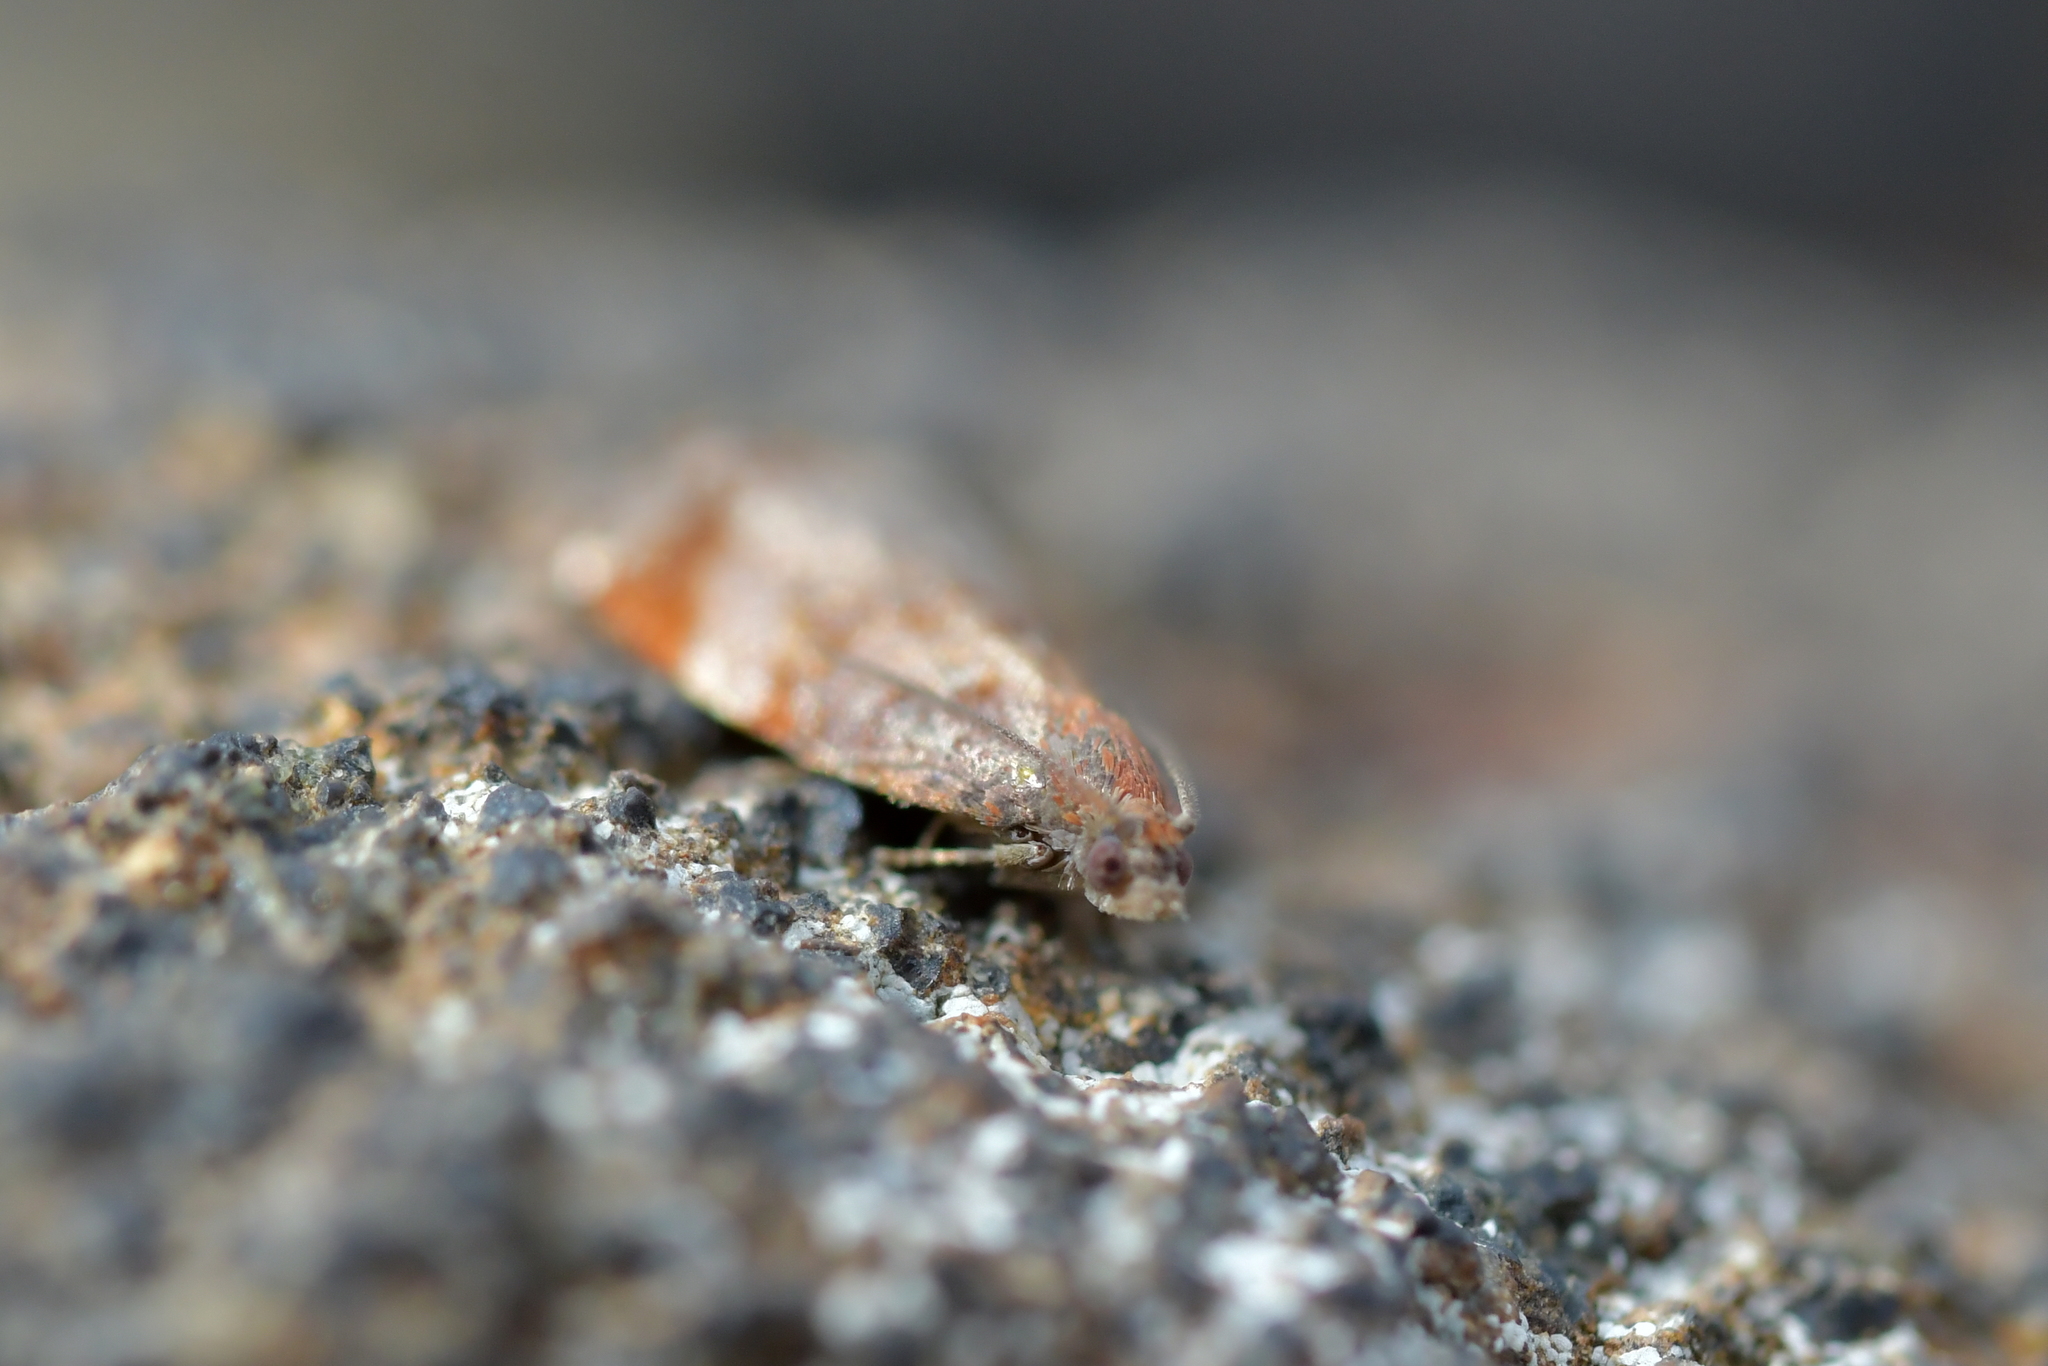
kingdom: Animalia
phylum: Arthropoda
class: Insecta
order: Lepidoptera
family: Tortricidae
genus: Tortrix
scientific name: Tortrix
